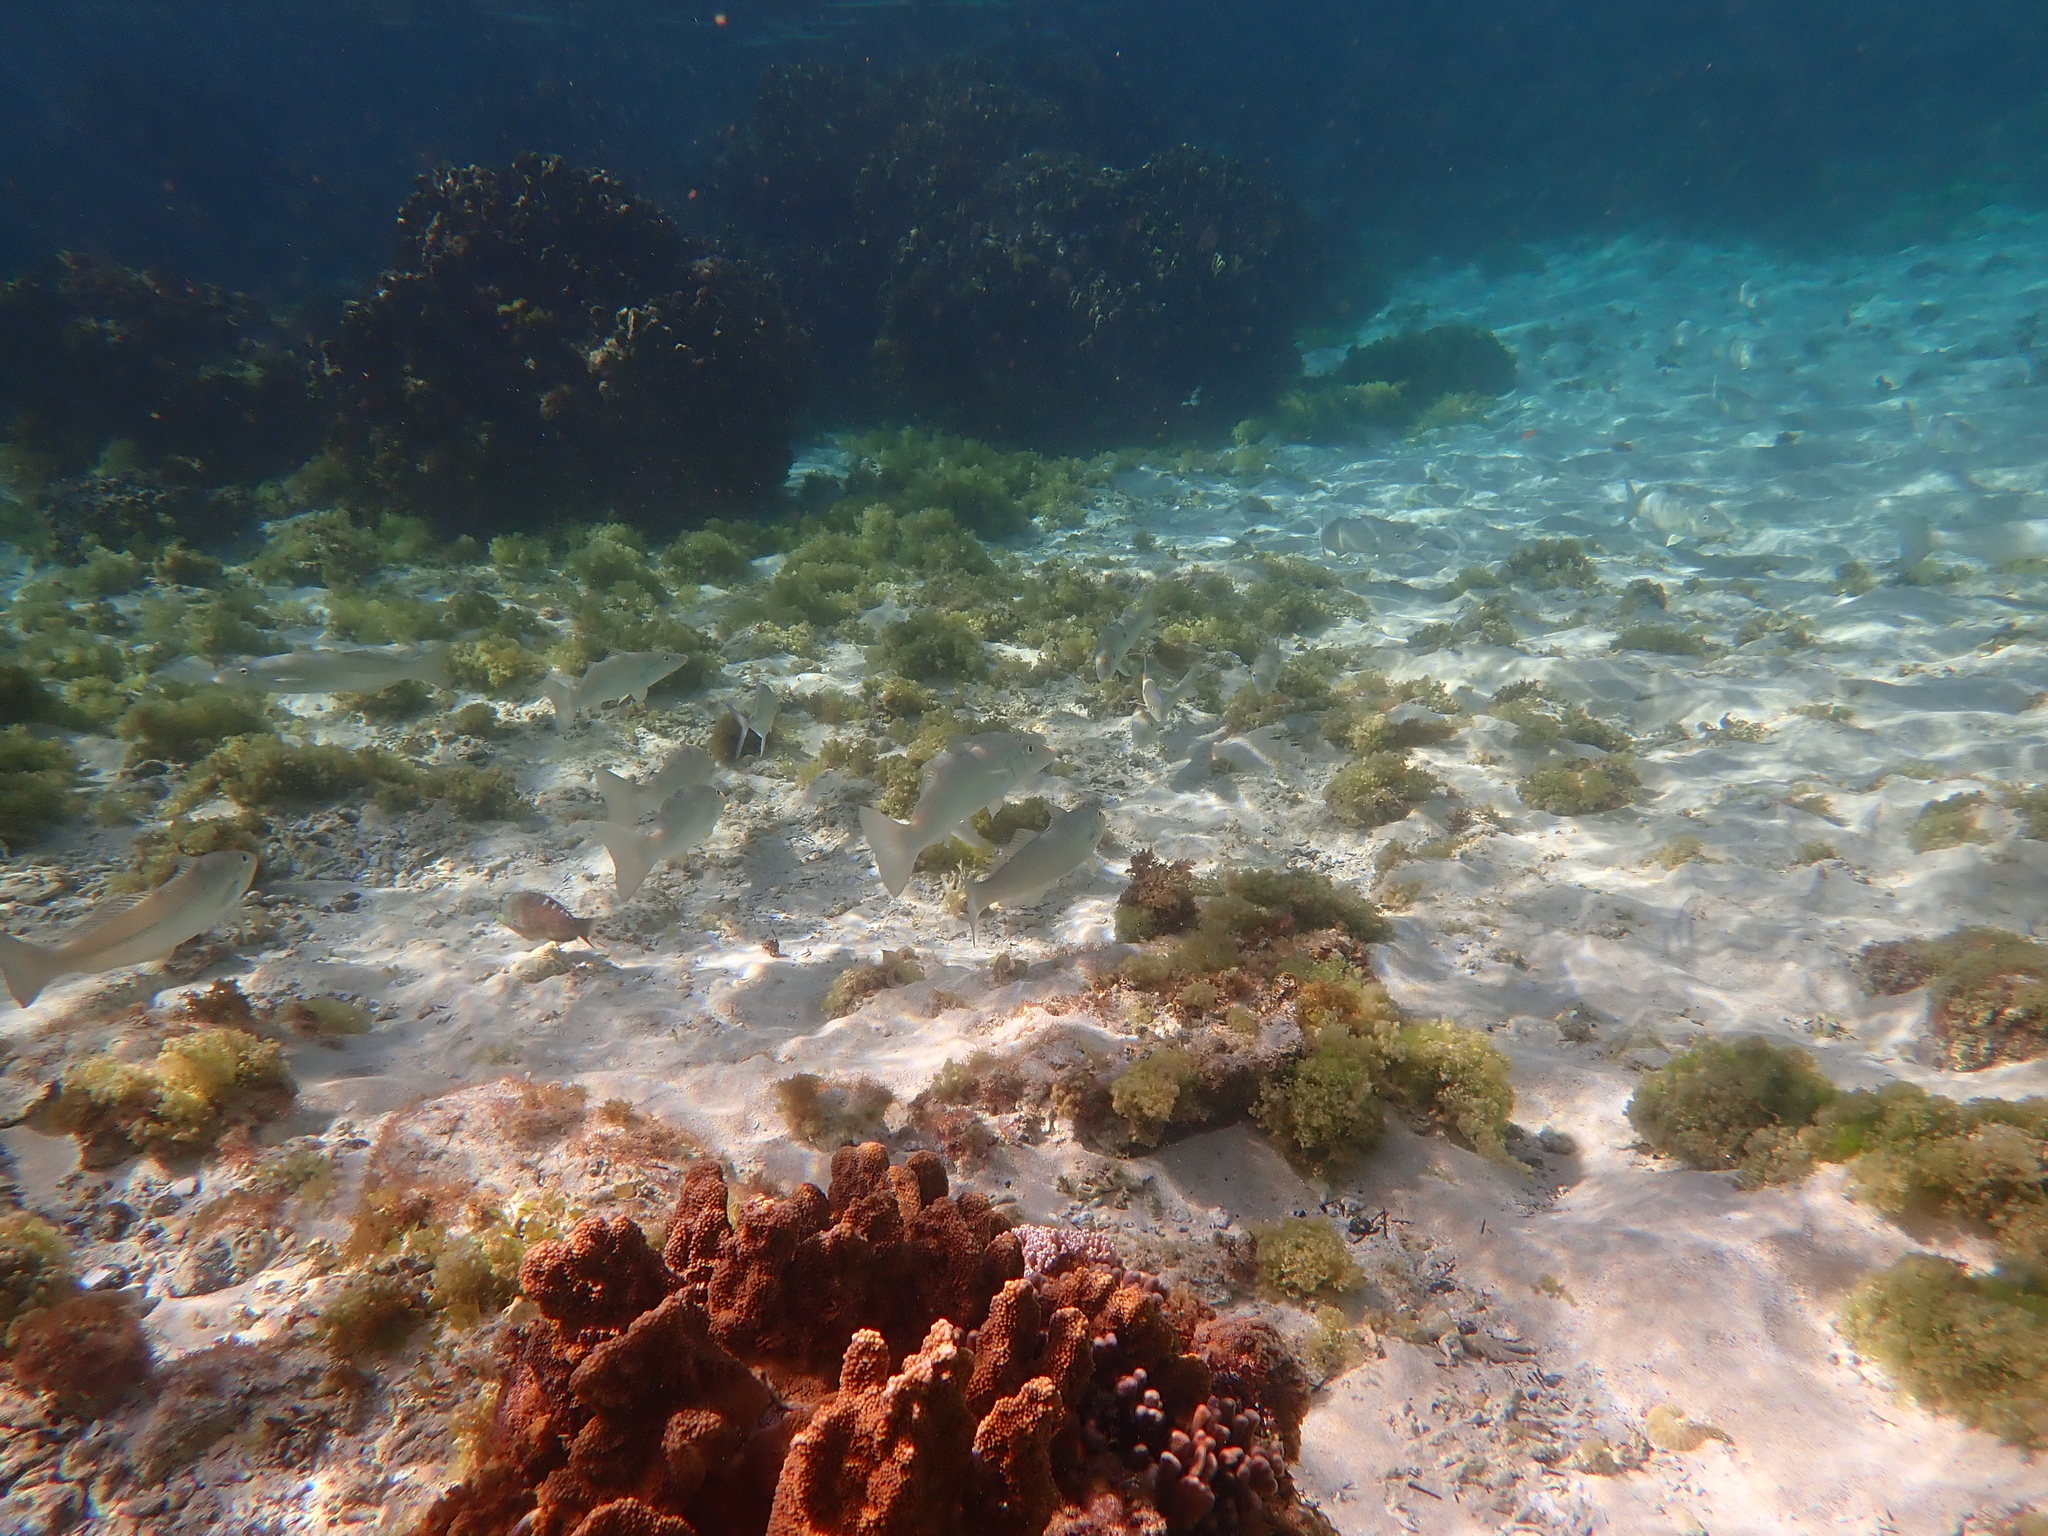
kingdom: Animalia
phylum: Chordata
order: Perciformes
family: Sillaginidae
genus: Sillago
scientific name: Sillago ciliata
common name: Sand sillago
